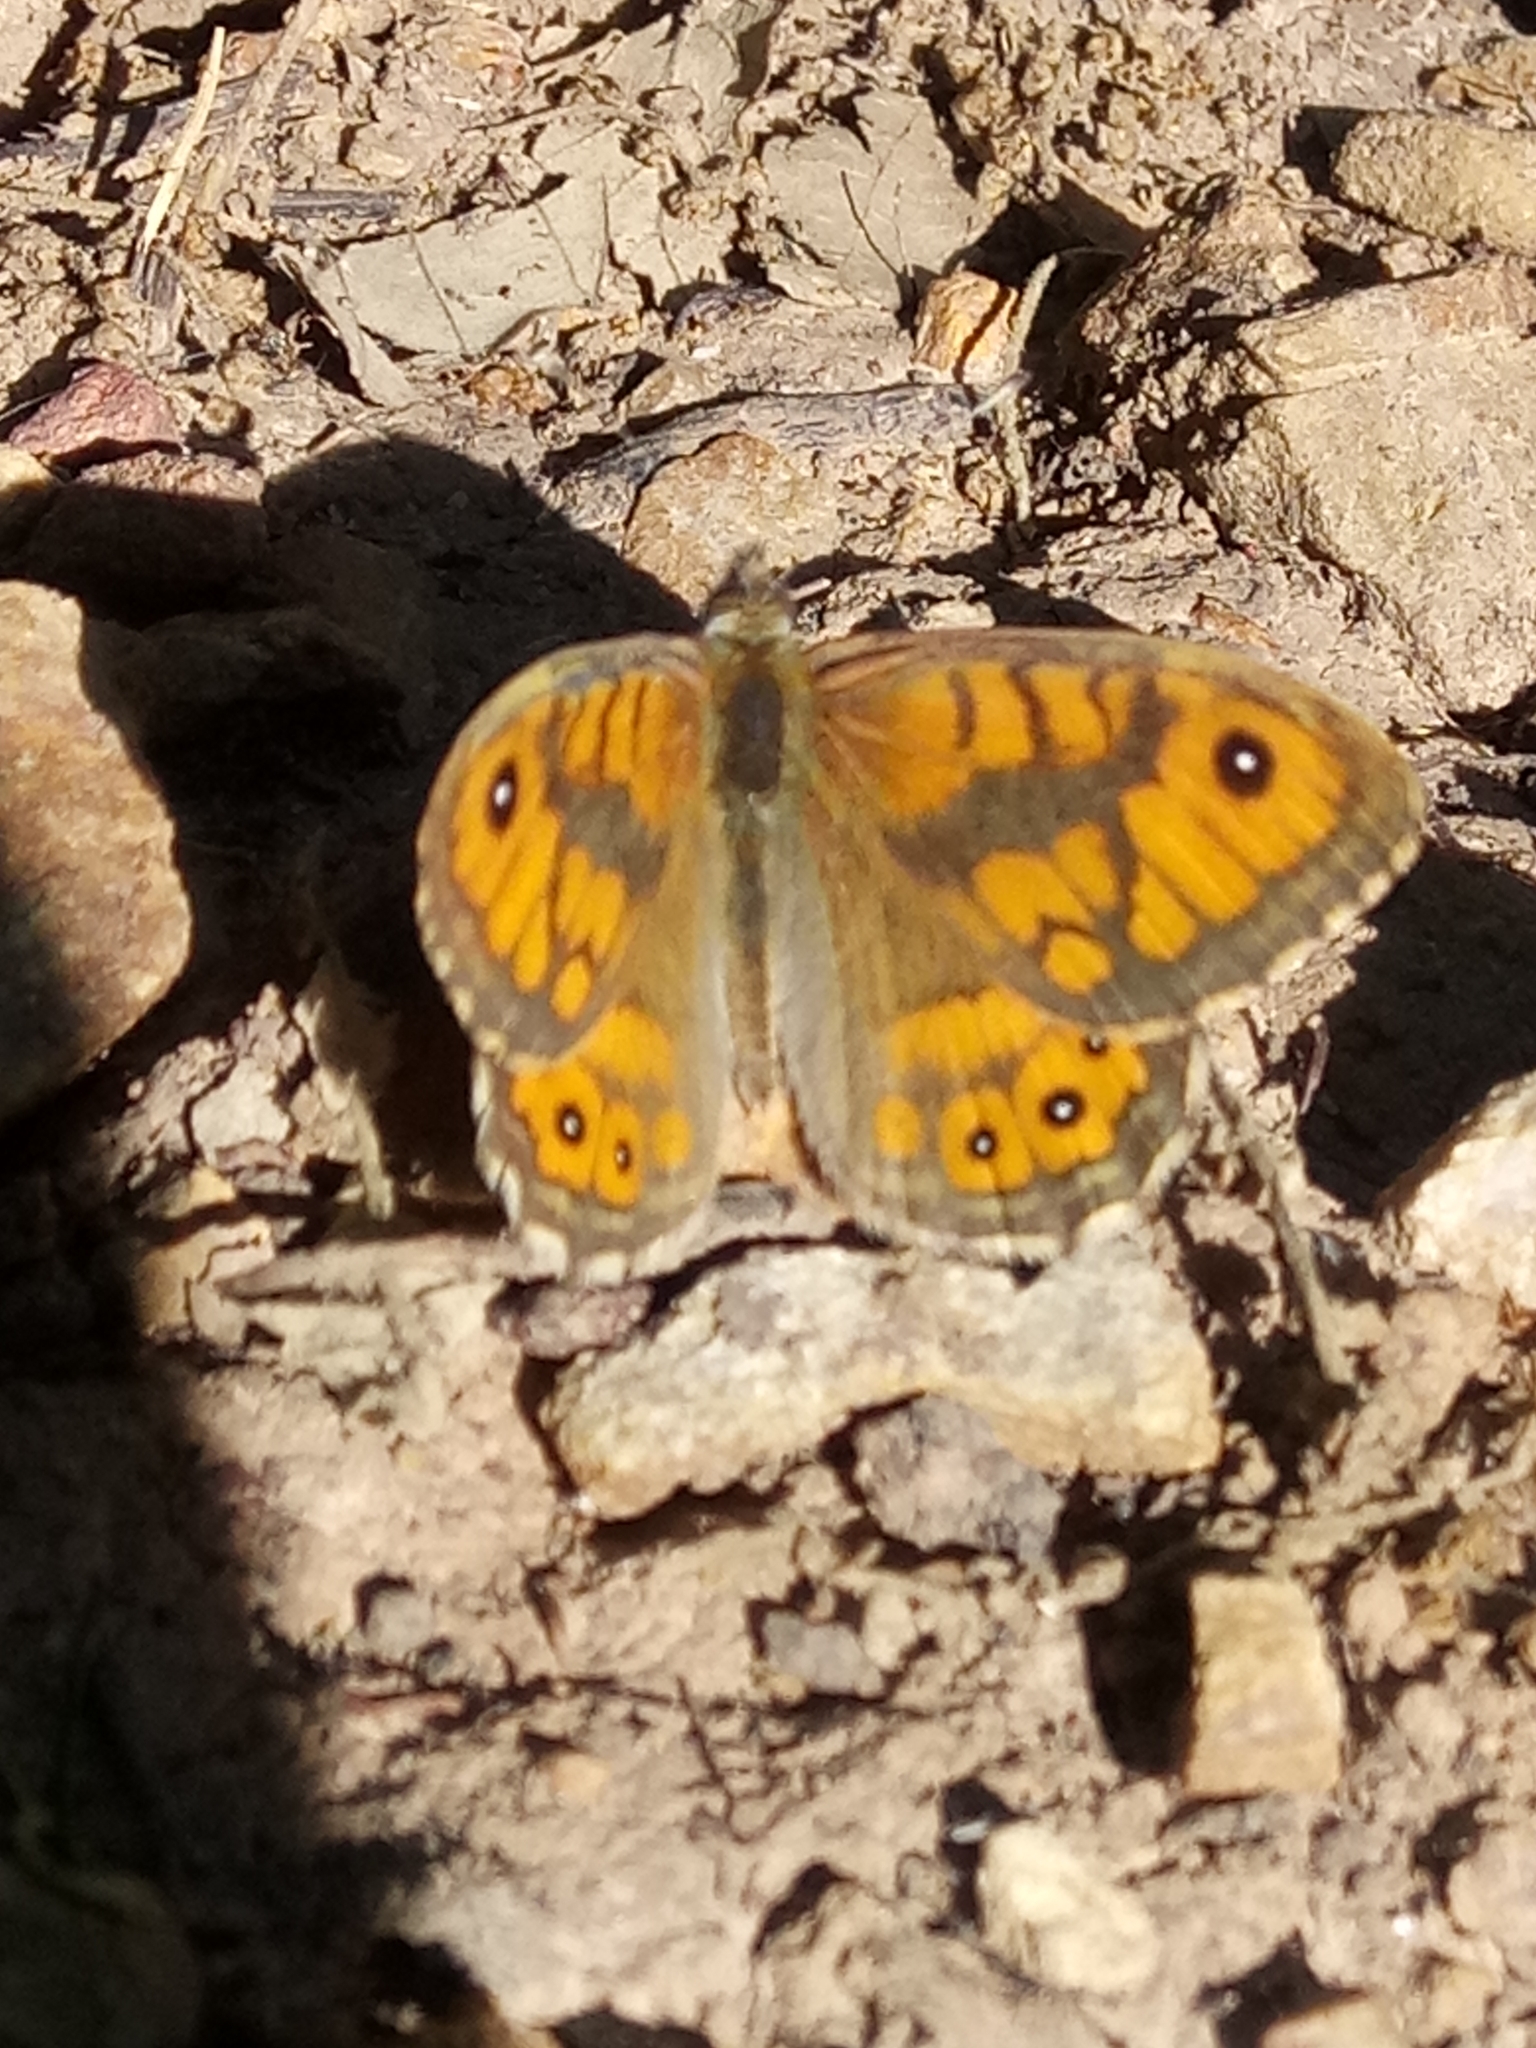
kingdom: Animalia
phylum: Arthropoda
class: Insecta
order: Lepidoptera
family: Nymphalidae
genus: Pararge
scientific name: Pararge Lasiommata megera
